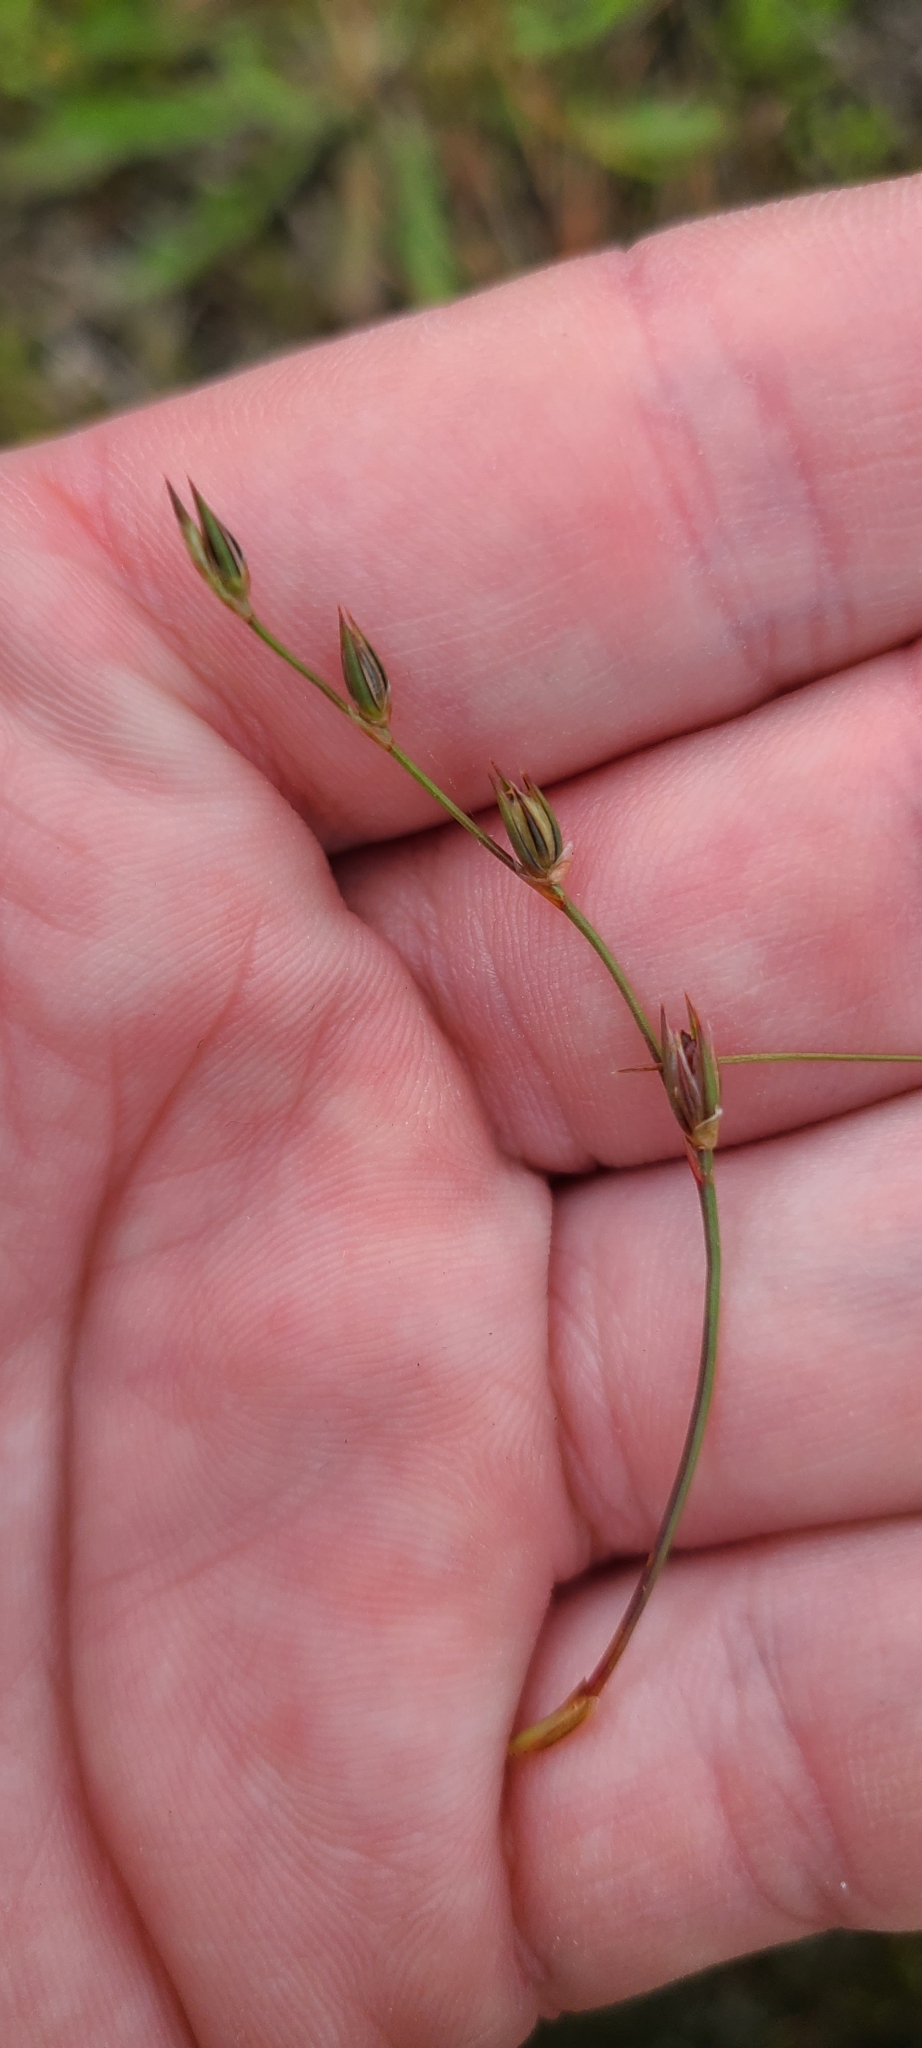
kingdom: Plantae
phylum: Tracheophyta
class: Liliopsida
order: Poales
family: Juncaceae
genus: Juncus
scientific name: Juncus bufonius
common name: Toad rush
